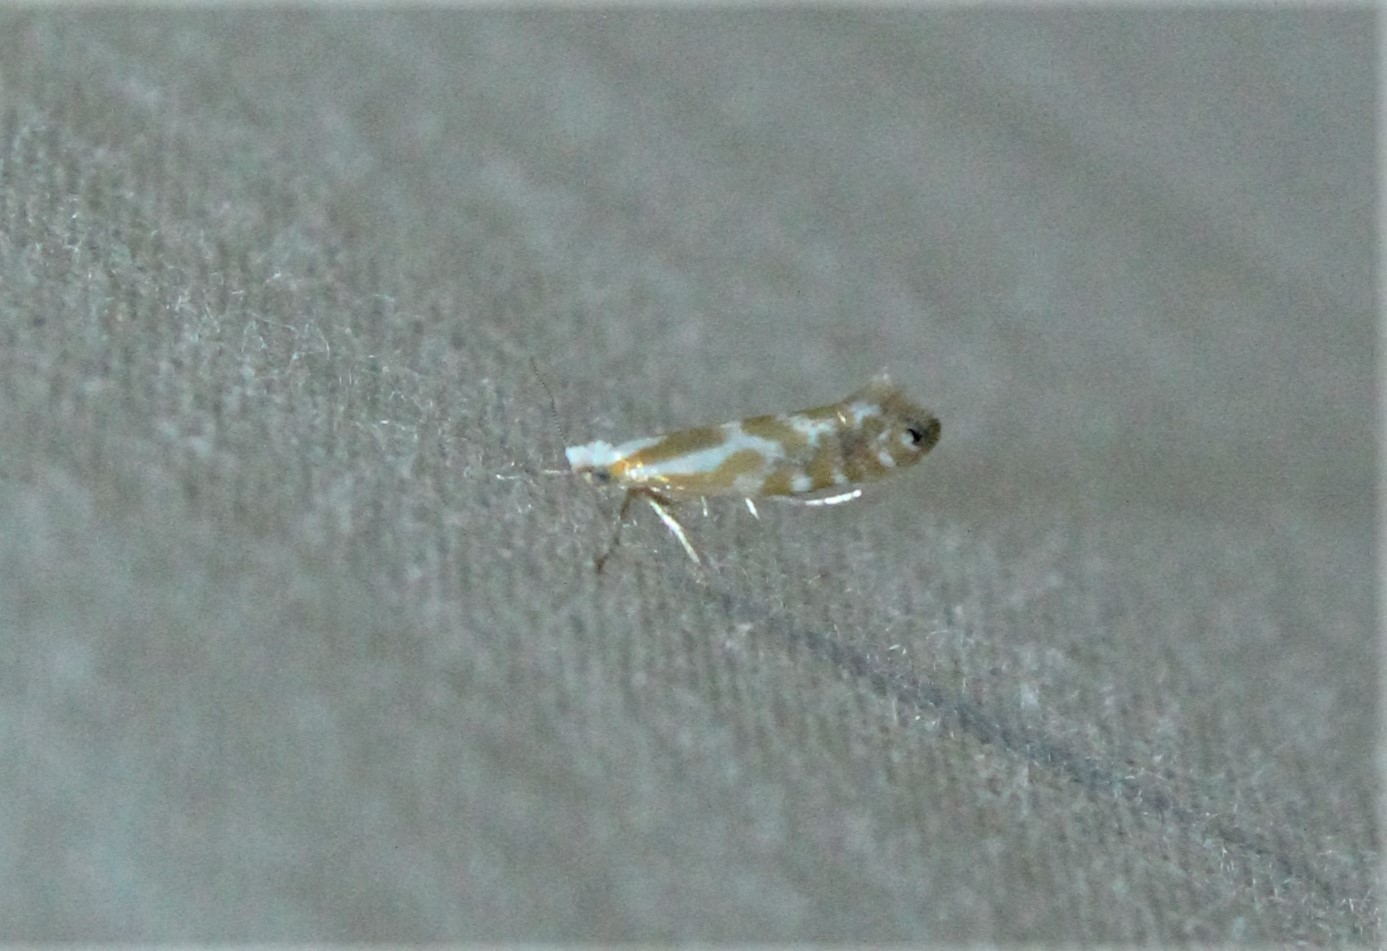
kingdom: Animalia
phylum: Arthropoda
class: Insecta
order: Lepidoptera
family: Argyresthiidae
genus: Argyresthia
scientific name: Argyresthia canadensis
